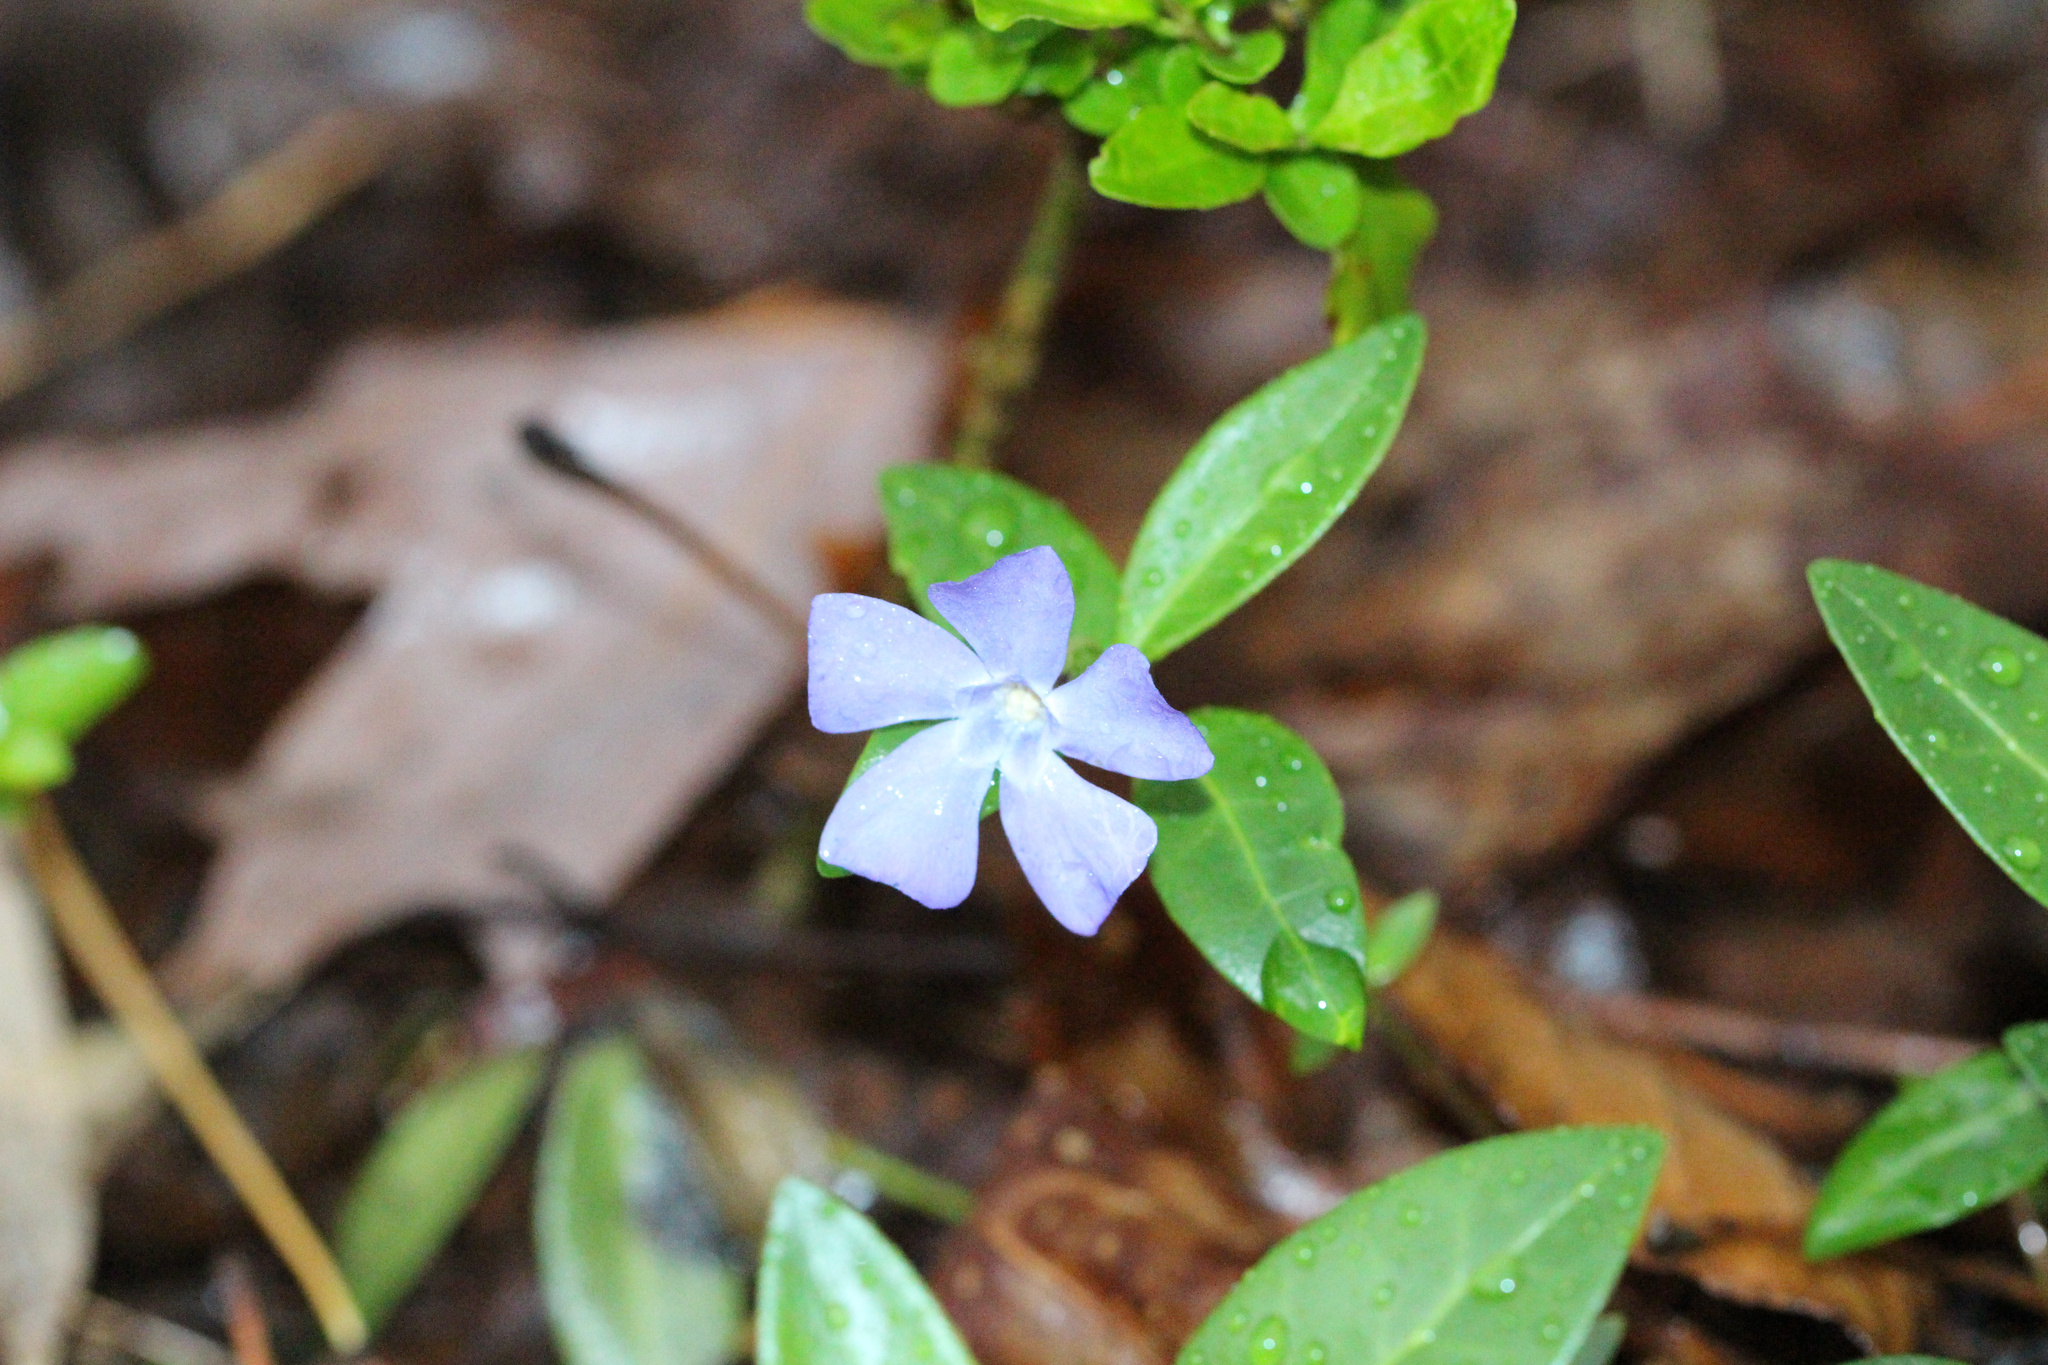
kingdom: Plantae
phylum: Tracheophyta
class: Magnoliopsida
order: Gentianales
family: Apocynaceae
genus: Vinca
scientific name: Vinca minor
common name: Lesser periwinkle
